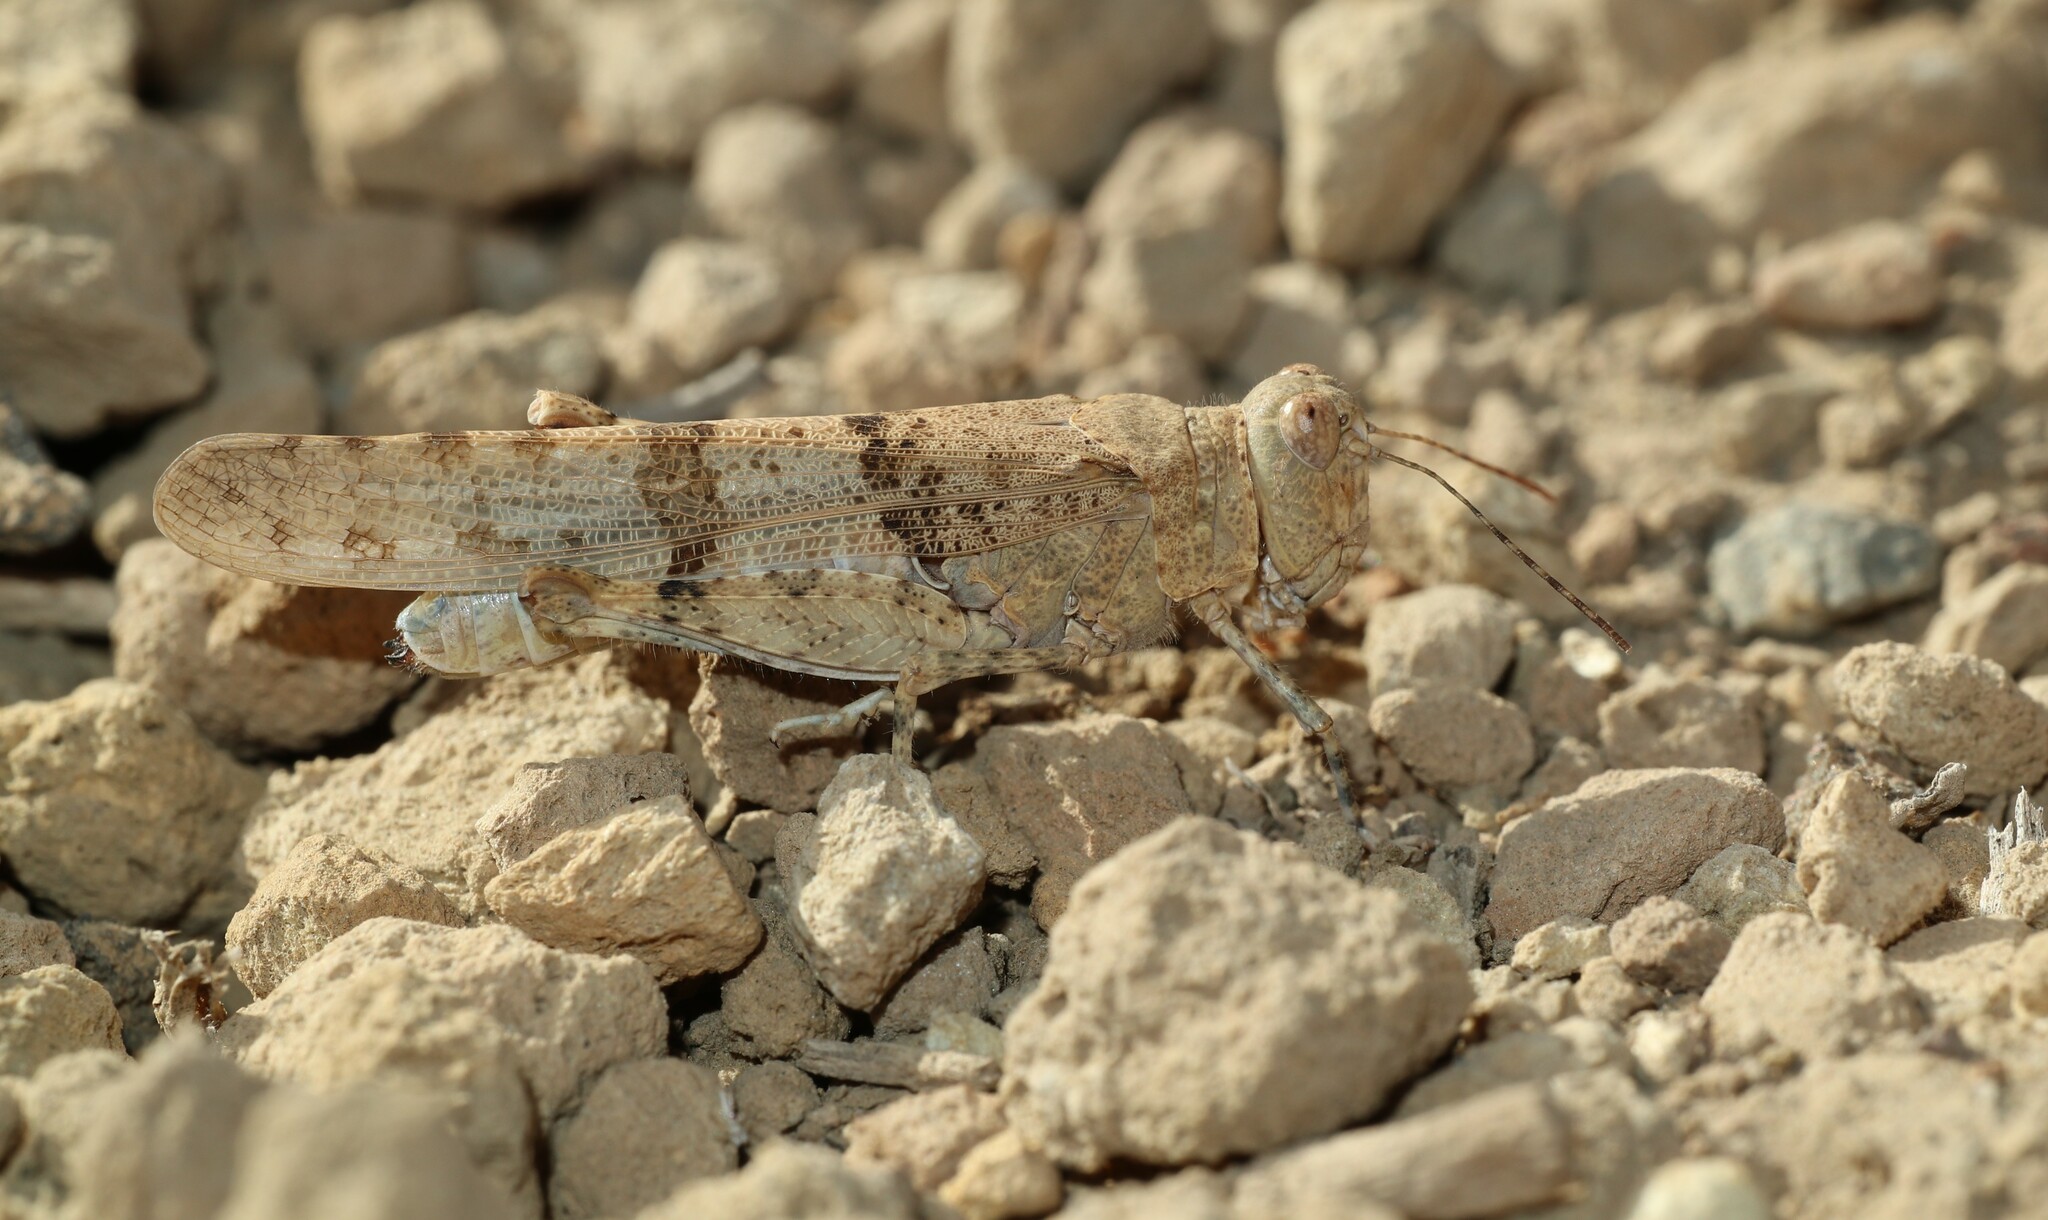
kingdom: Animalia
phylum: Arthropoda
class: Insecta
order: Orthoptera
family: Acrididae
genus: Sphingonotus
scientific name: Sphingonotus willemsei
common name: Cañadas sand grasshopper
